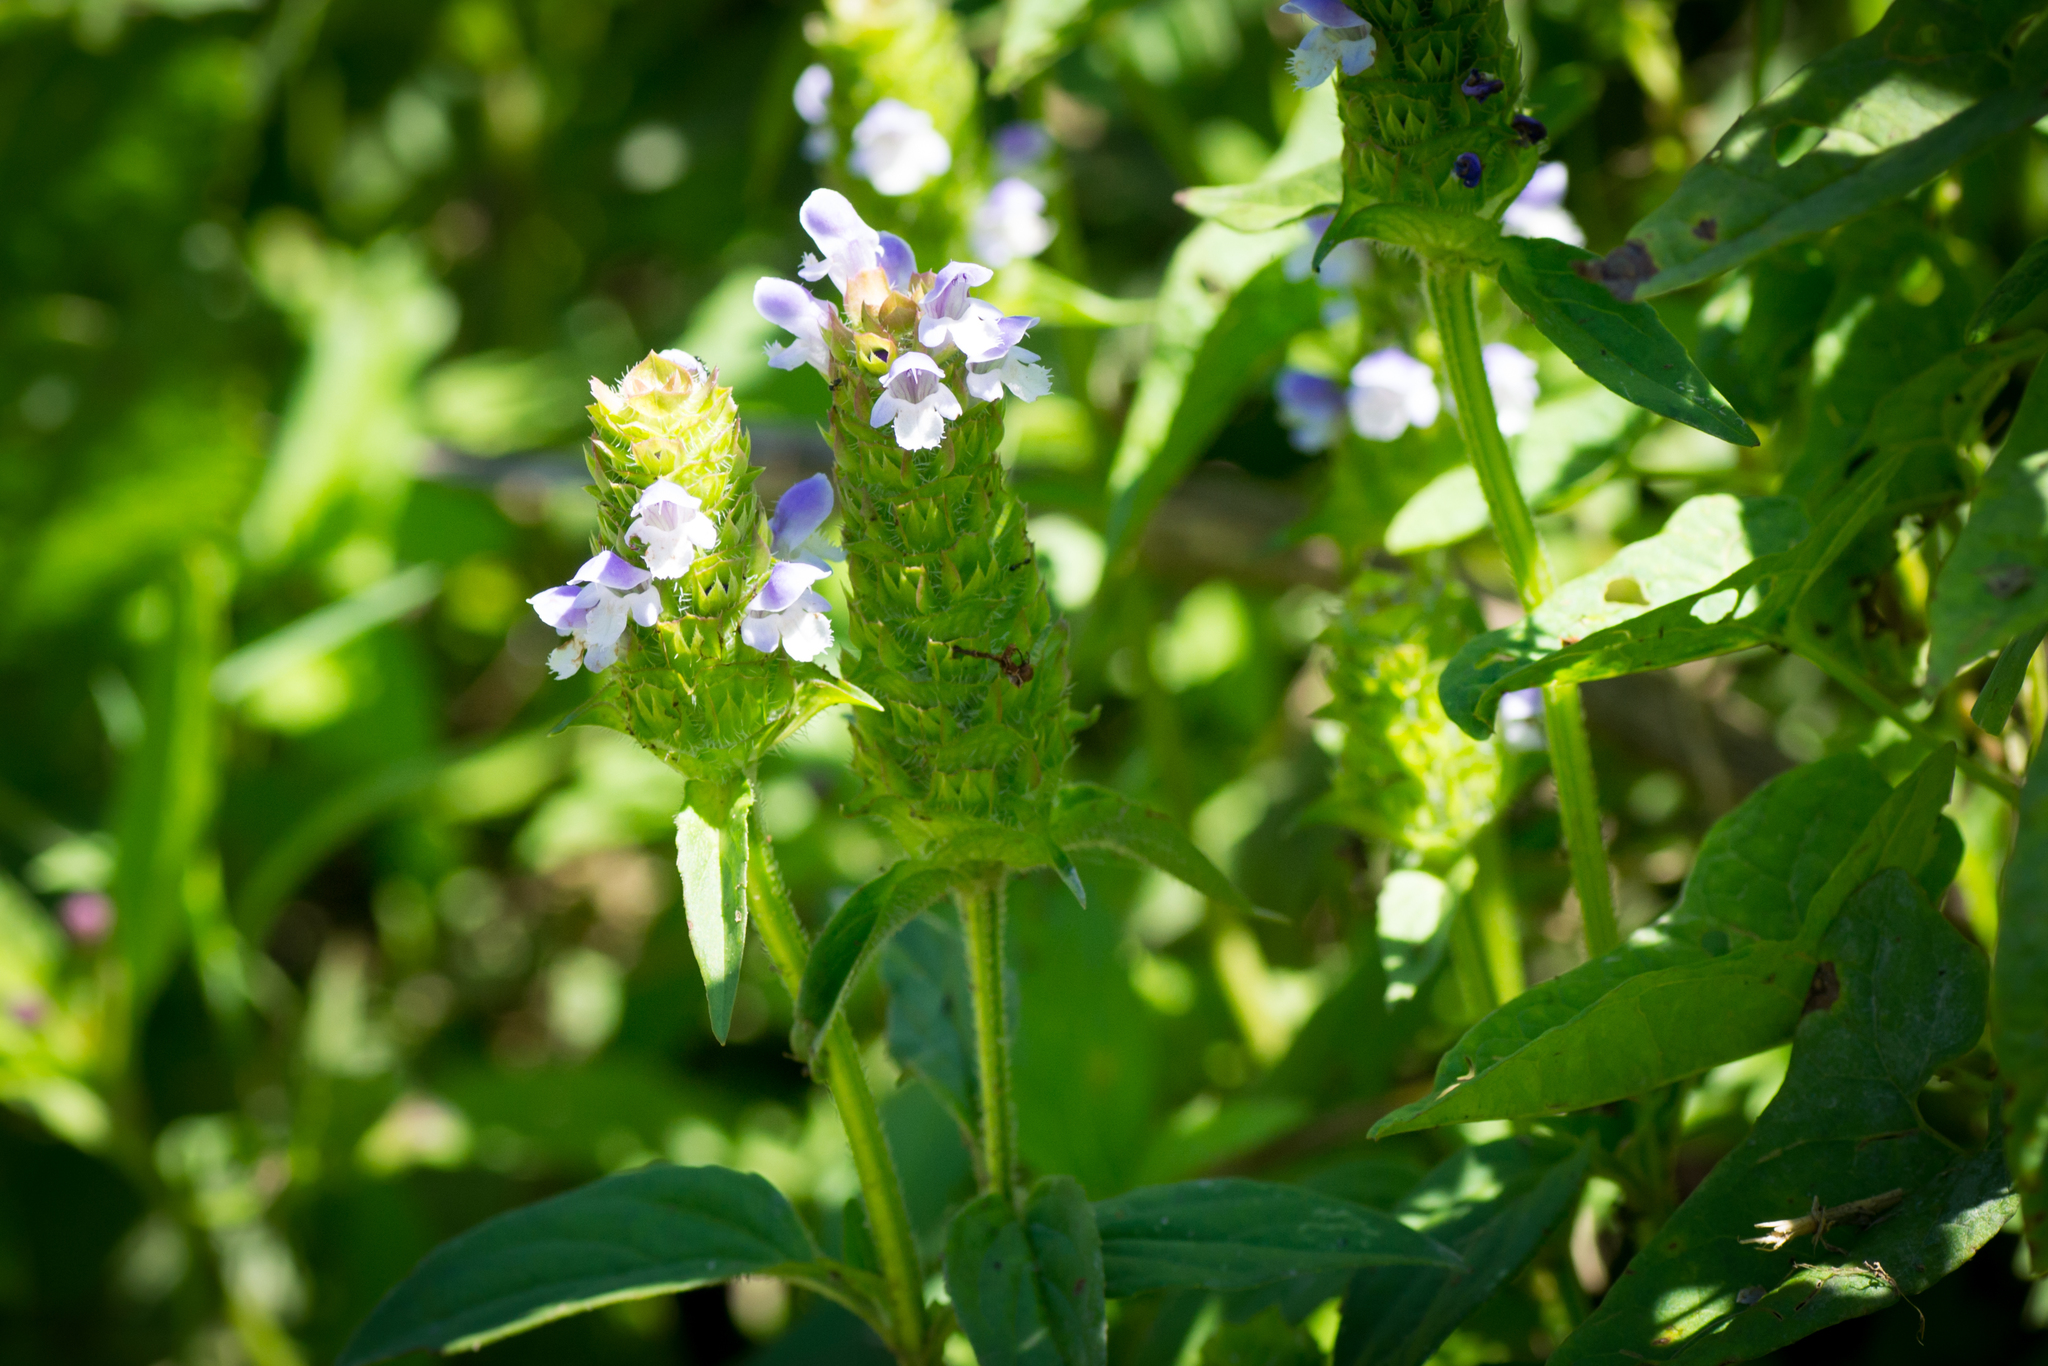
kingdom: Plantae
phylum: Tracheophyta
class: Magnoliopsida
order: Lamiales
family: Lamiaceae
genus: Prunella
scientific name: Prunella vulgaris
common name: Heal-all
